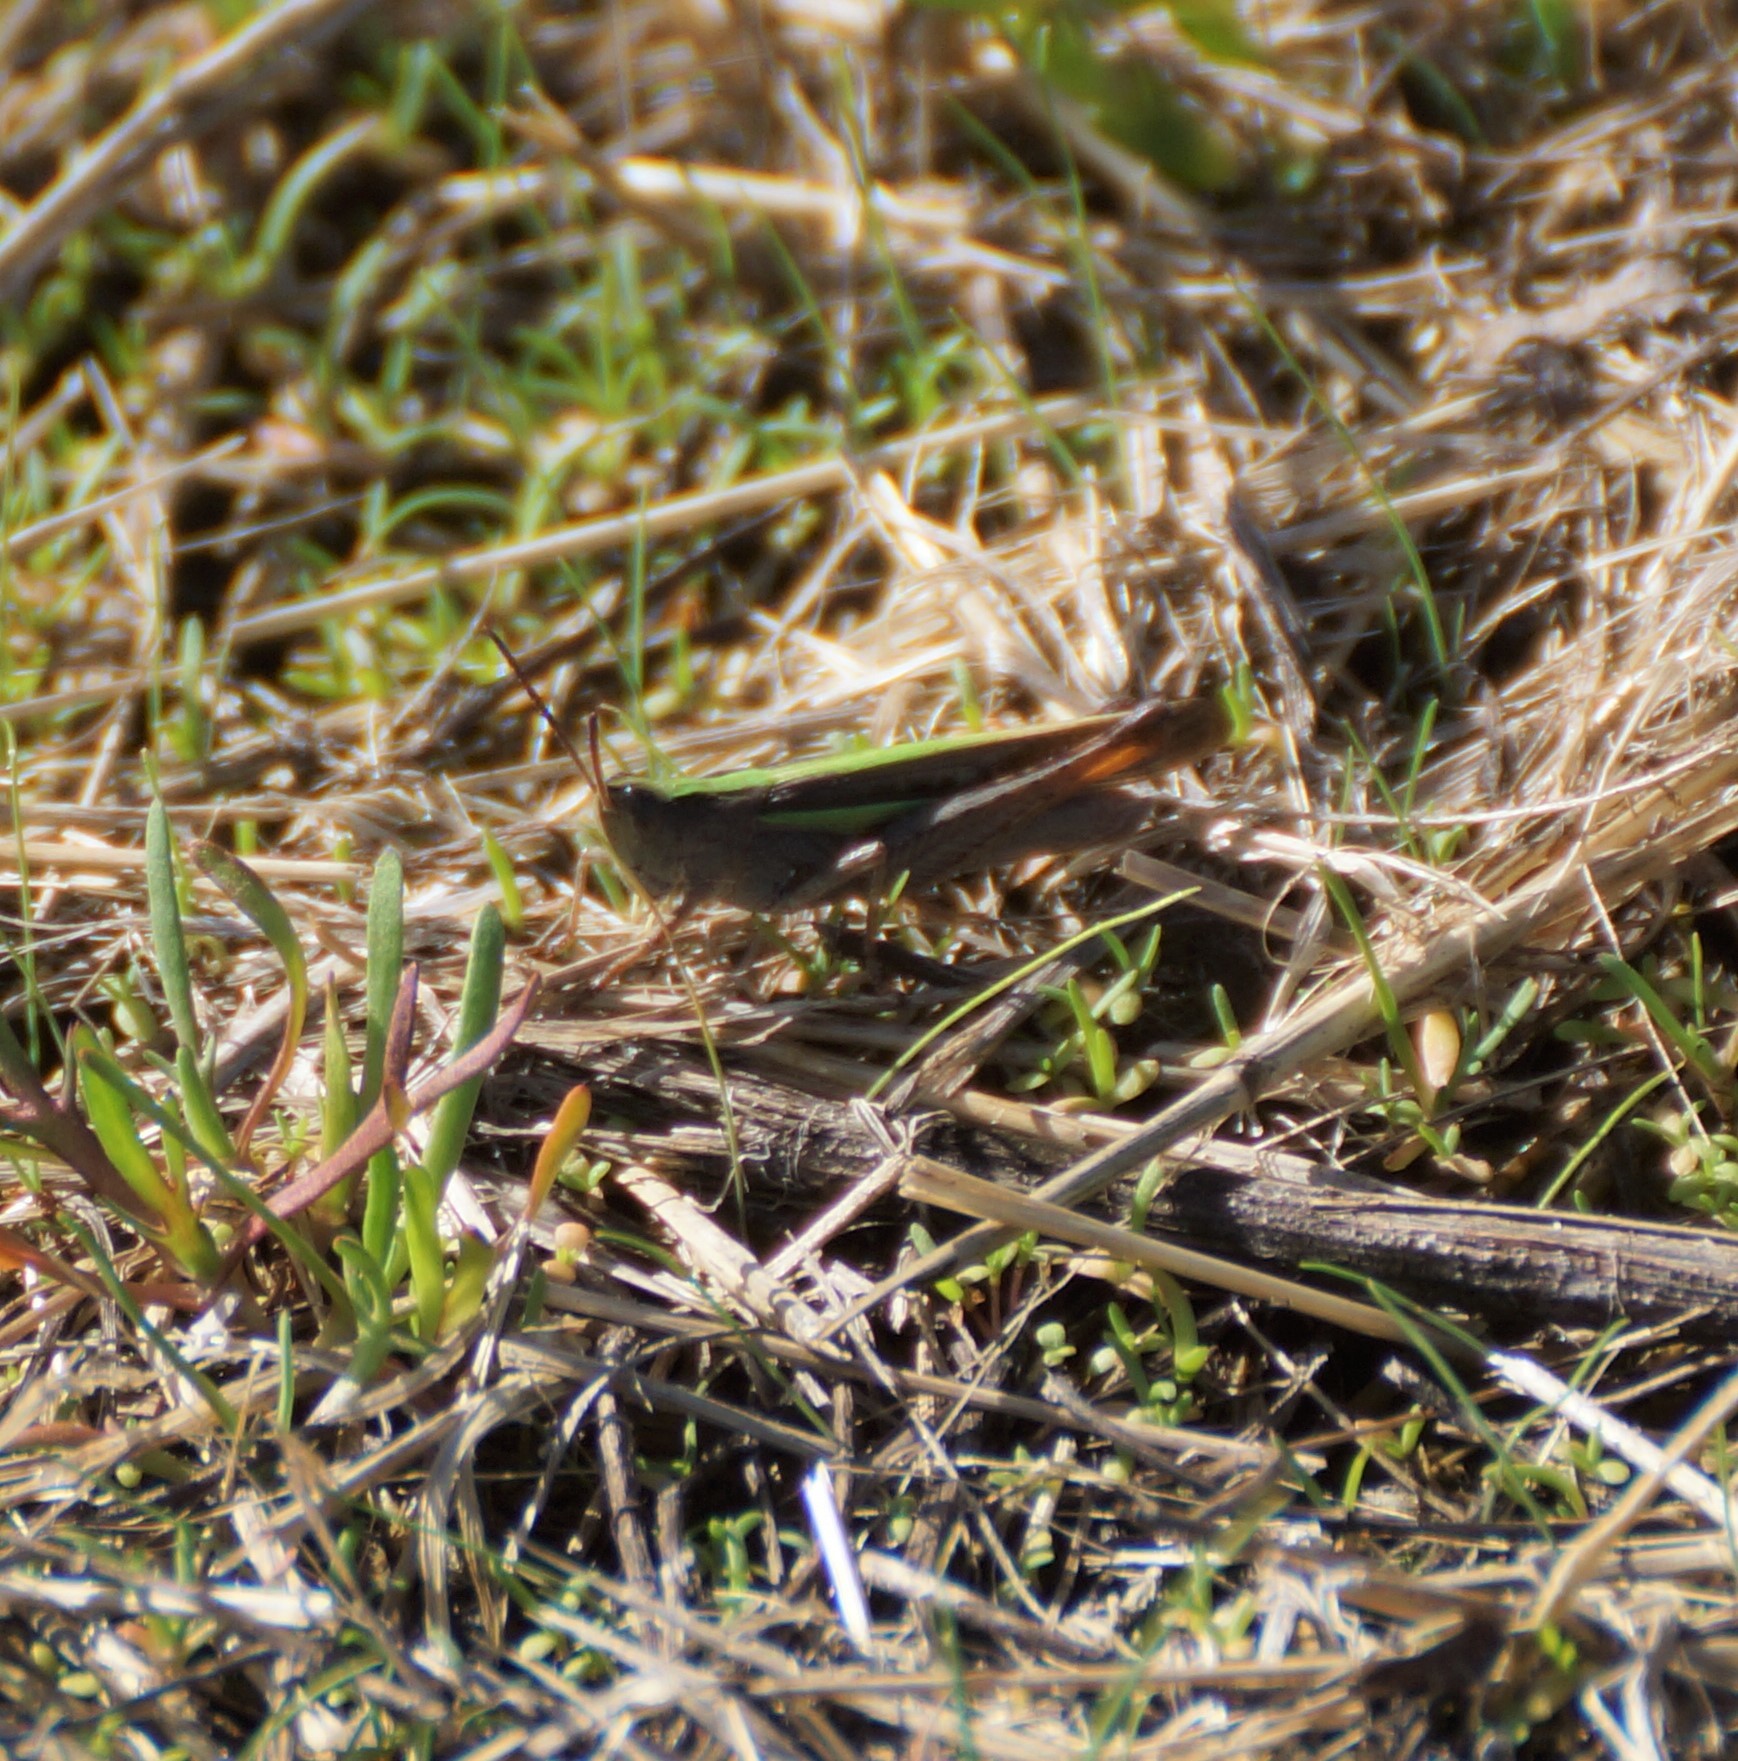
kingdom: Animalia
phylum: Arthropoda
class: Insecta
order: Orthoptera
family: Acrididae
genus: Schizobothrus
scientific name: Schizobothrus flavovittatus
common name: Disappearing grasshopper
